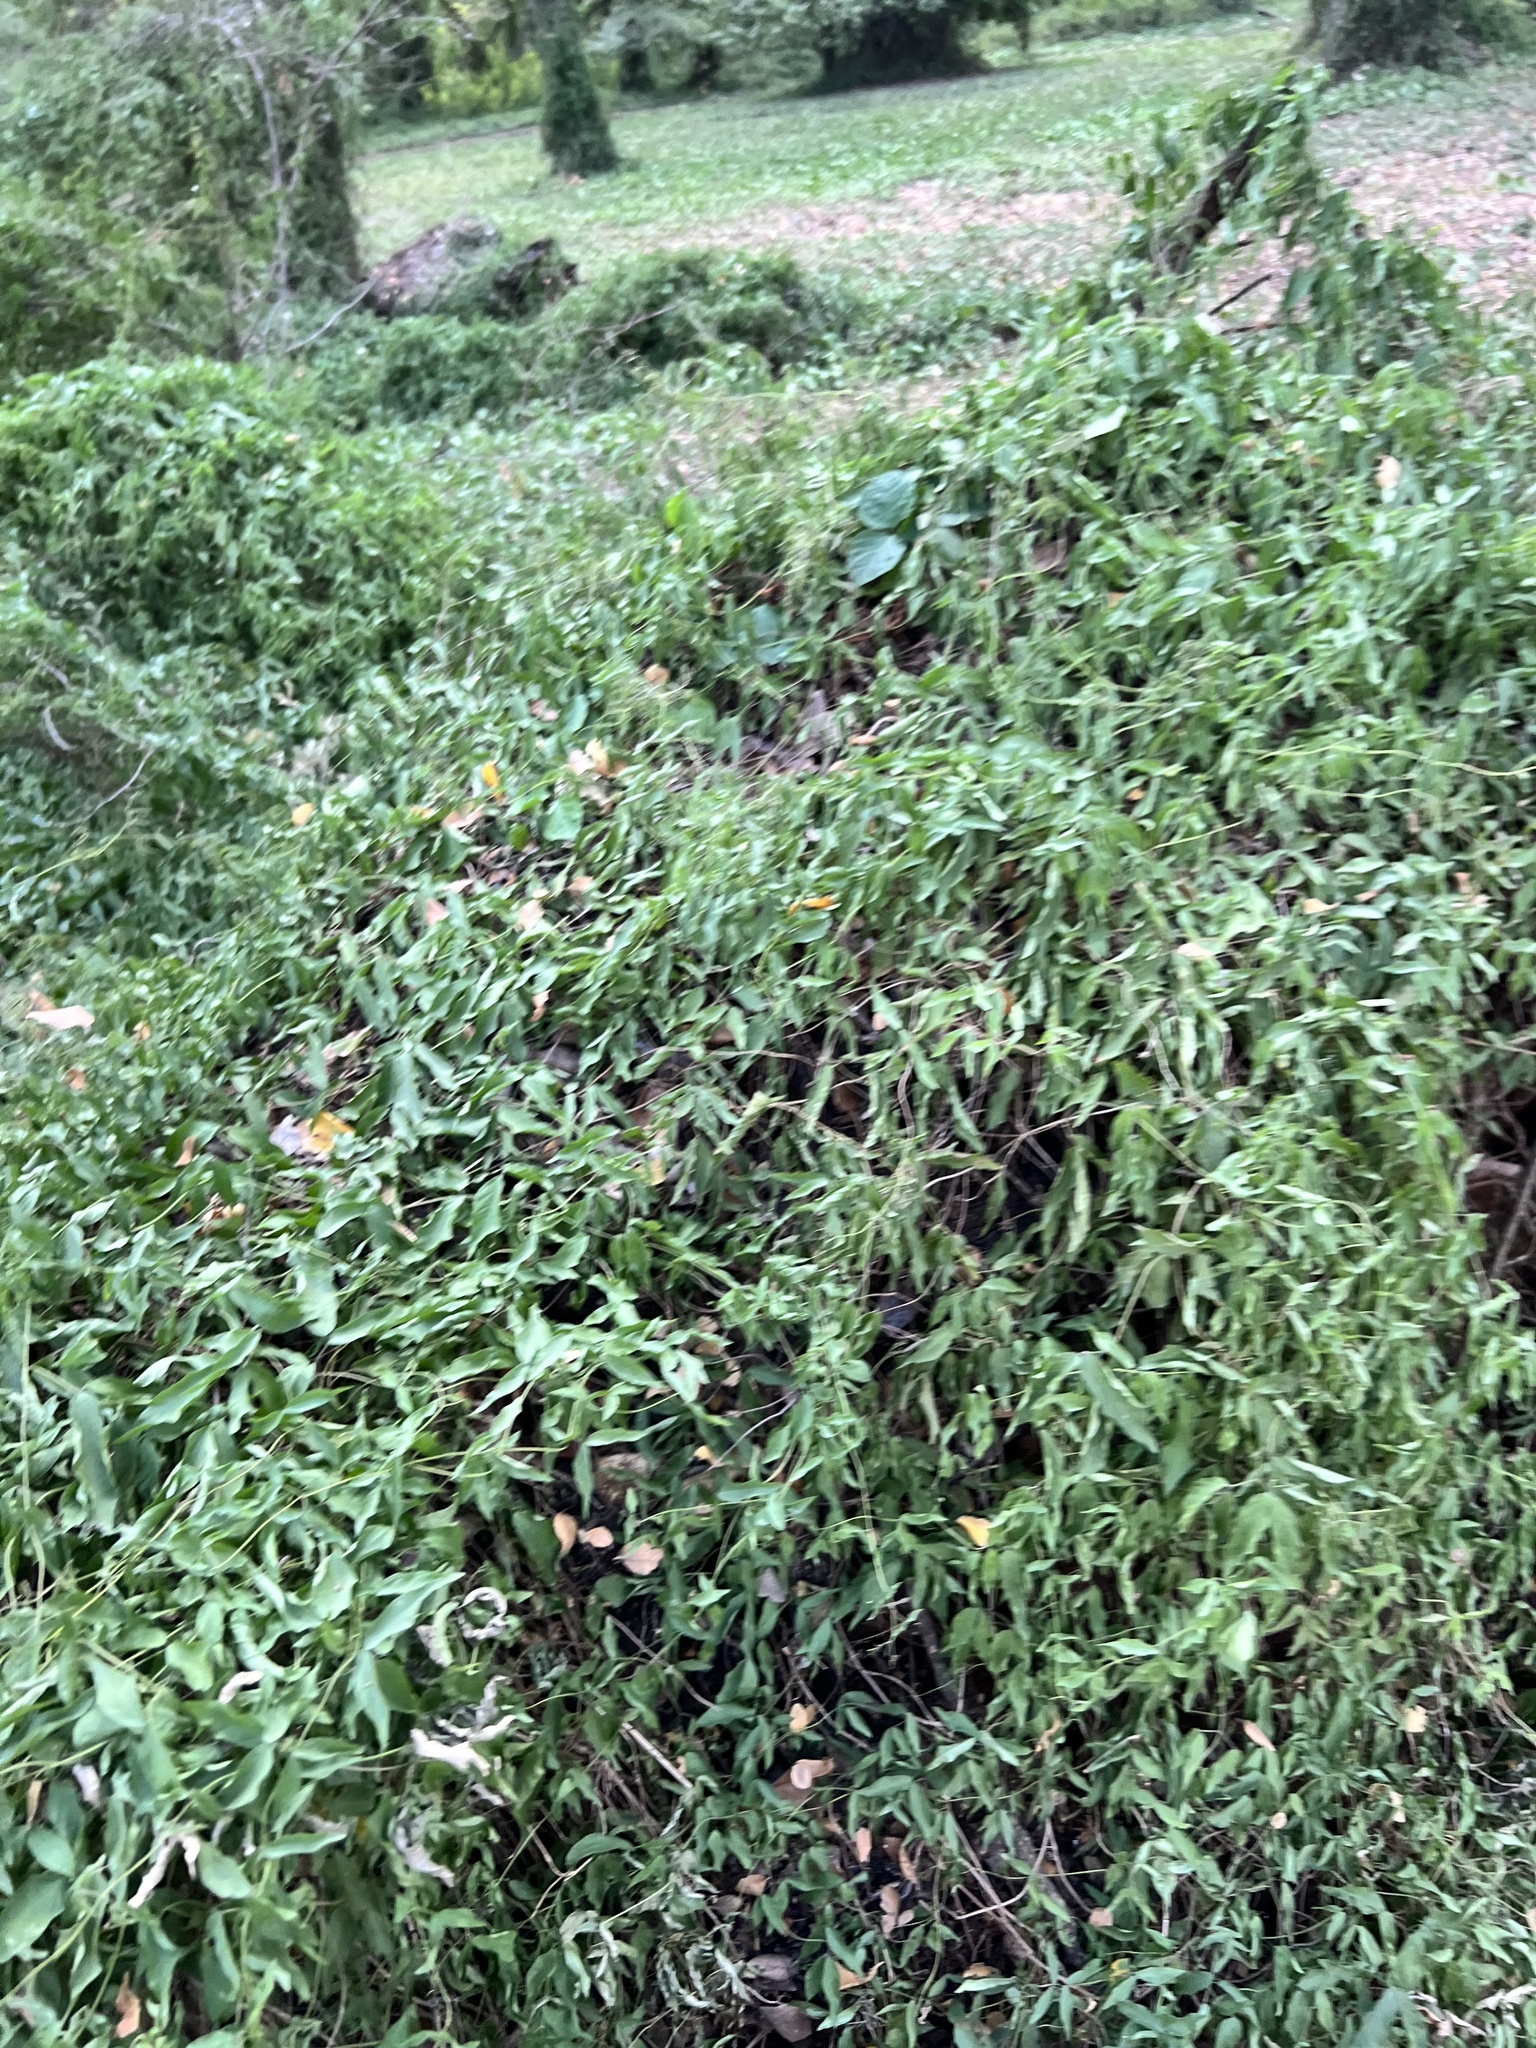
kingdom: Plantae
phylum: Tracheophyta
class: Magnoliopsida
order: Lamiales
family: Bignoniaceae
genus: Dolichandra
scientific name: Dolichandra unguis-cati
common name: Catclaw vine
